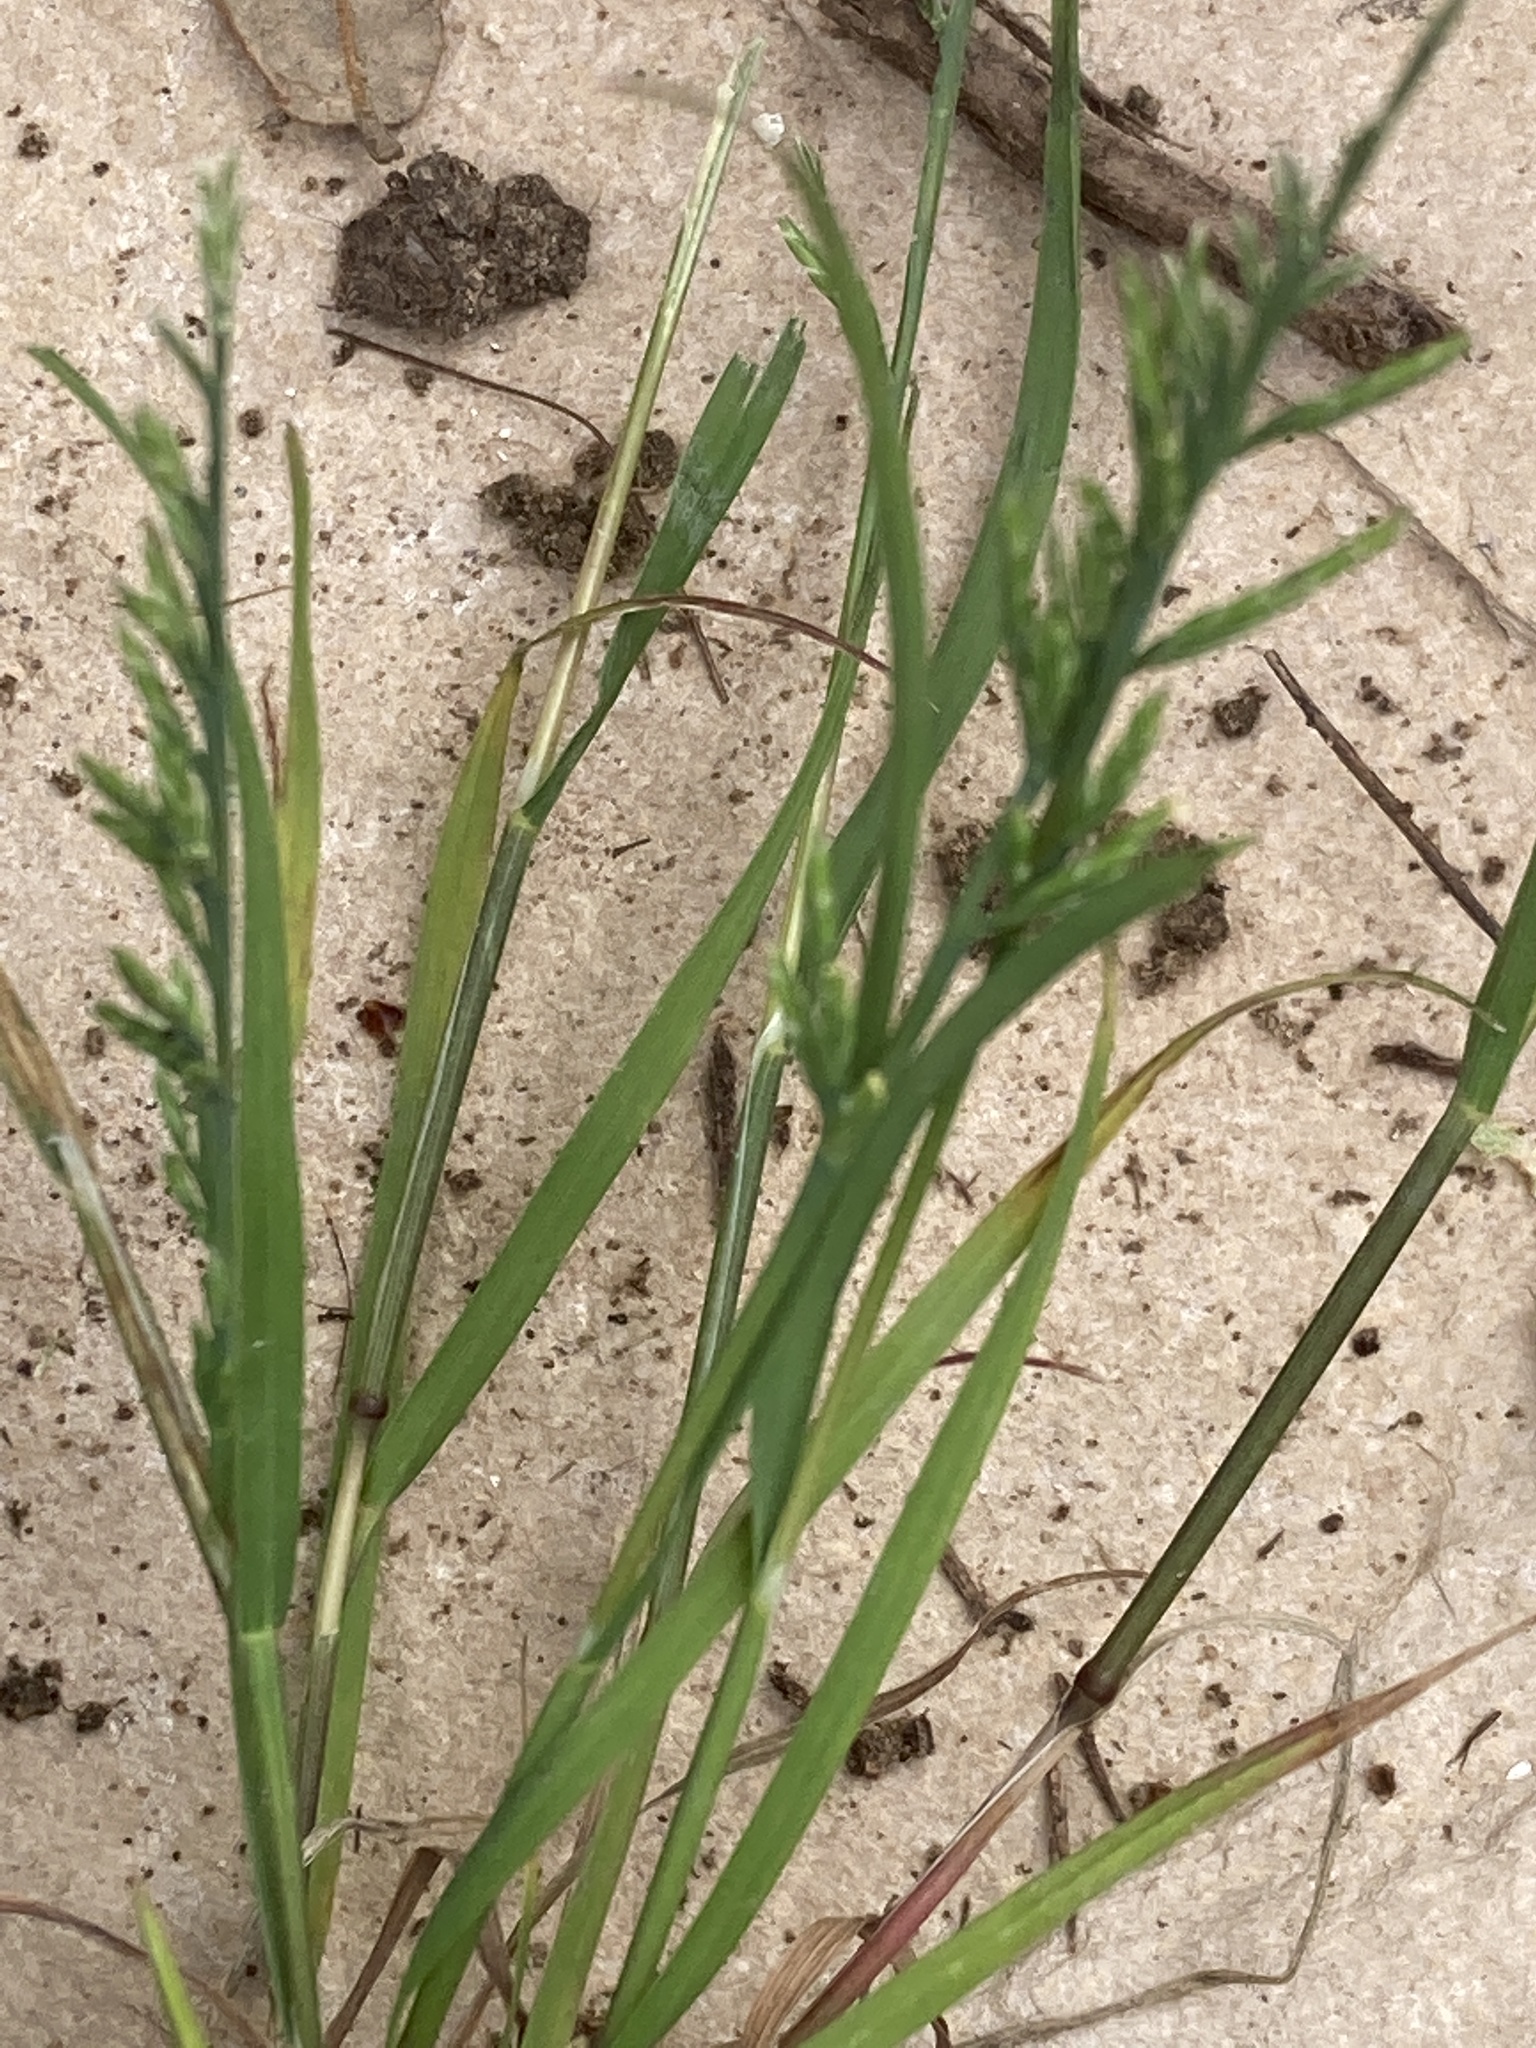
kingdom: Plantae
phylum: Tracheophyta
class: Liliopsida
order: Poales
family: Poaceae
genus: Catapodium
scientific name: Catapodium rigidum
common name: Fern-grass
